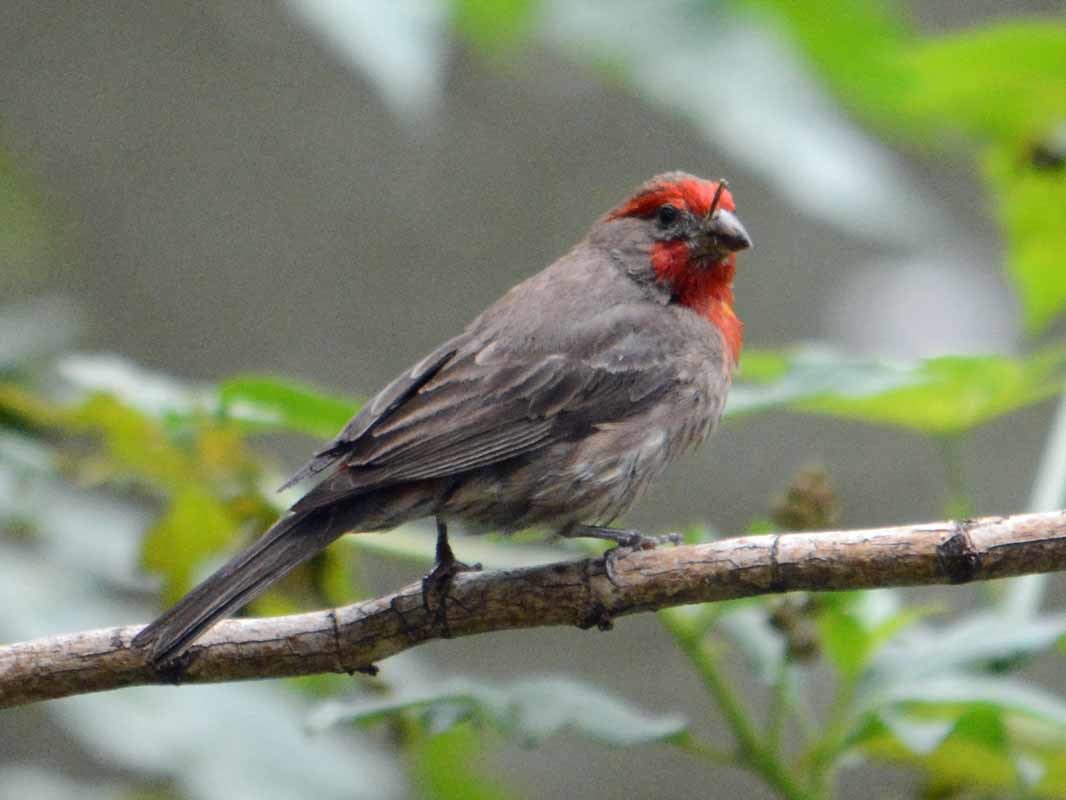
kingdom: Animalia
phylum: Chordata
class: Aves
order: Passeriformes
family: Fringillidae
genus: Haemorhous
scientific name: Haemorhous mexicanus
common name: House finch
